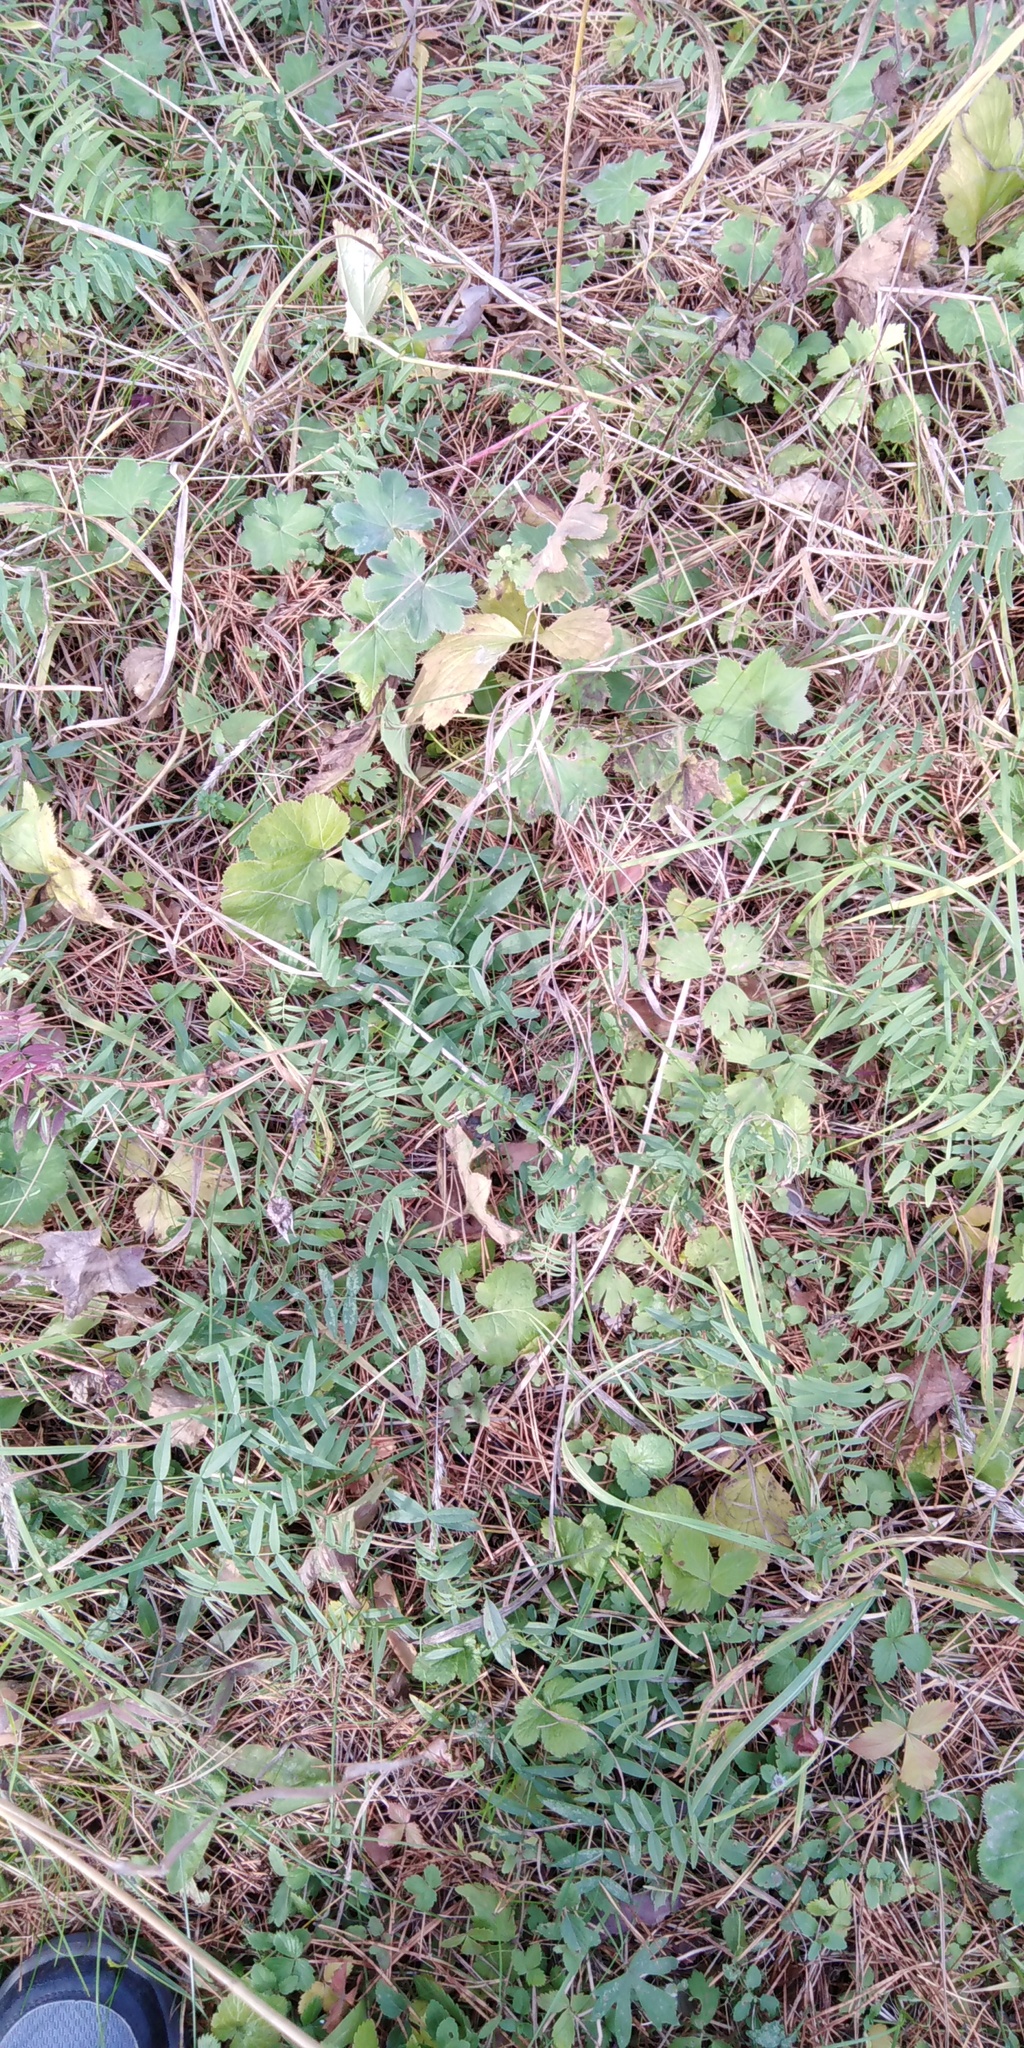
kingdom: Plantae
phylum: Tracheophyta
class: Magnoliopsida
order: Fabales
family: Fabaceae
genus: Vicia
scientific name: Vicia sepium
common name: Bush vetch
